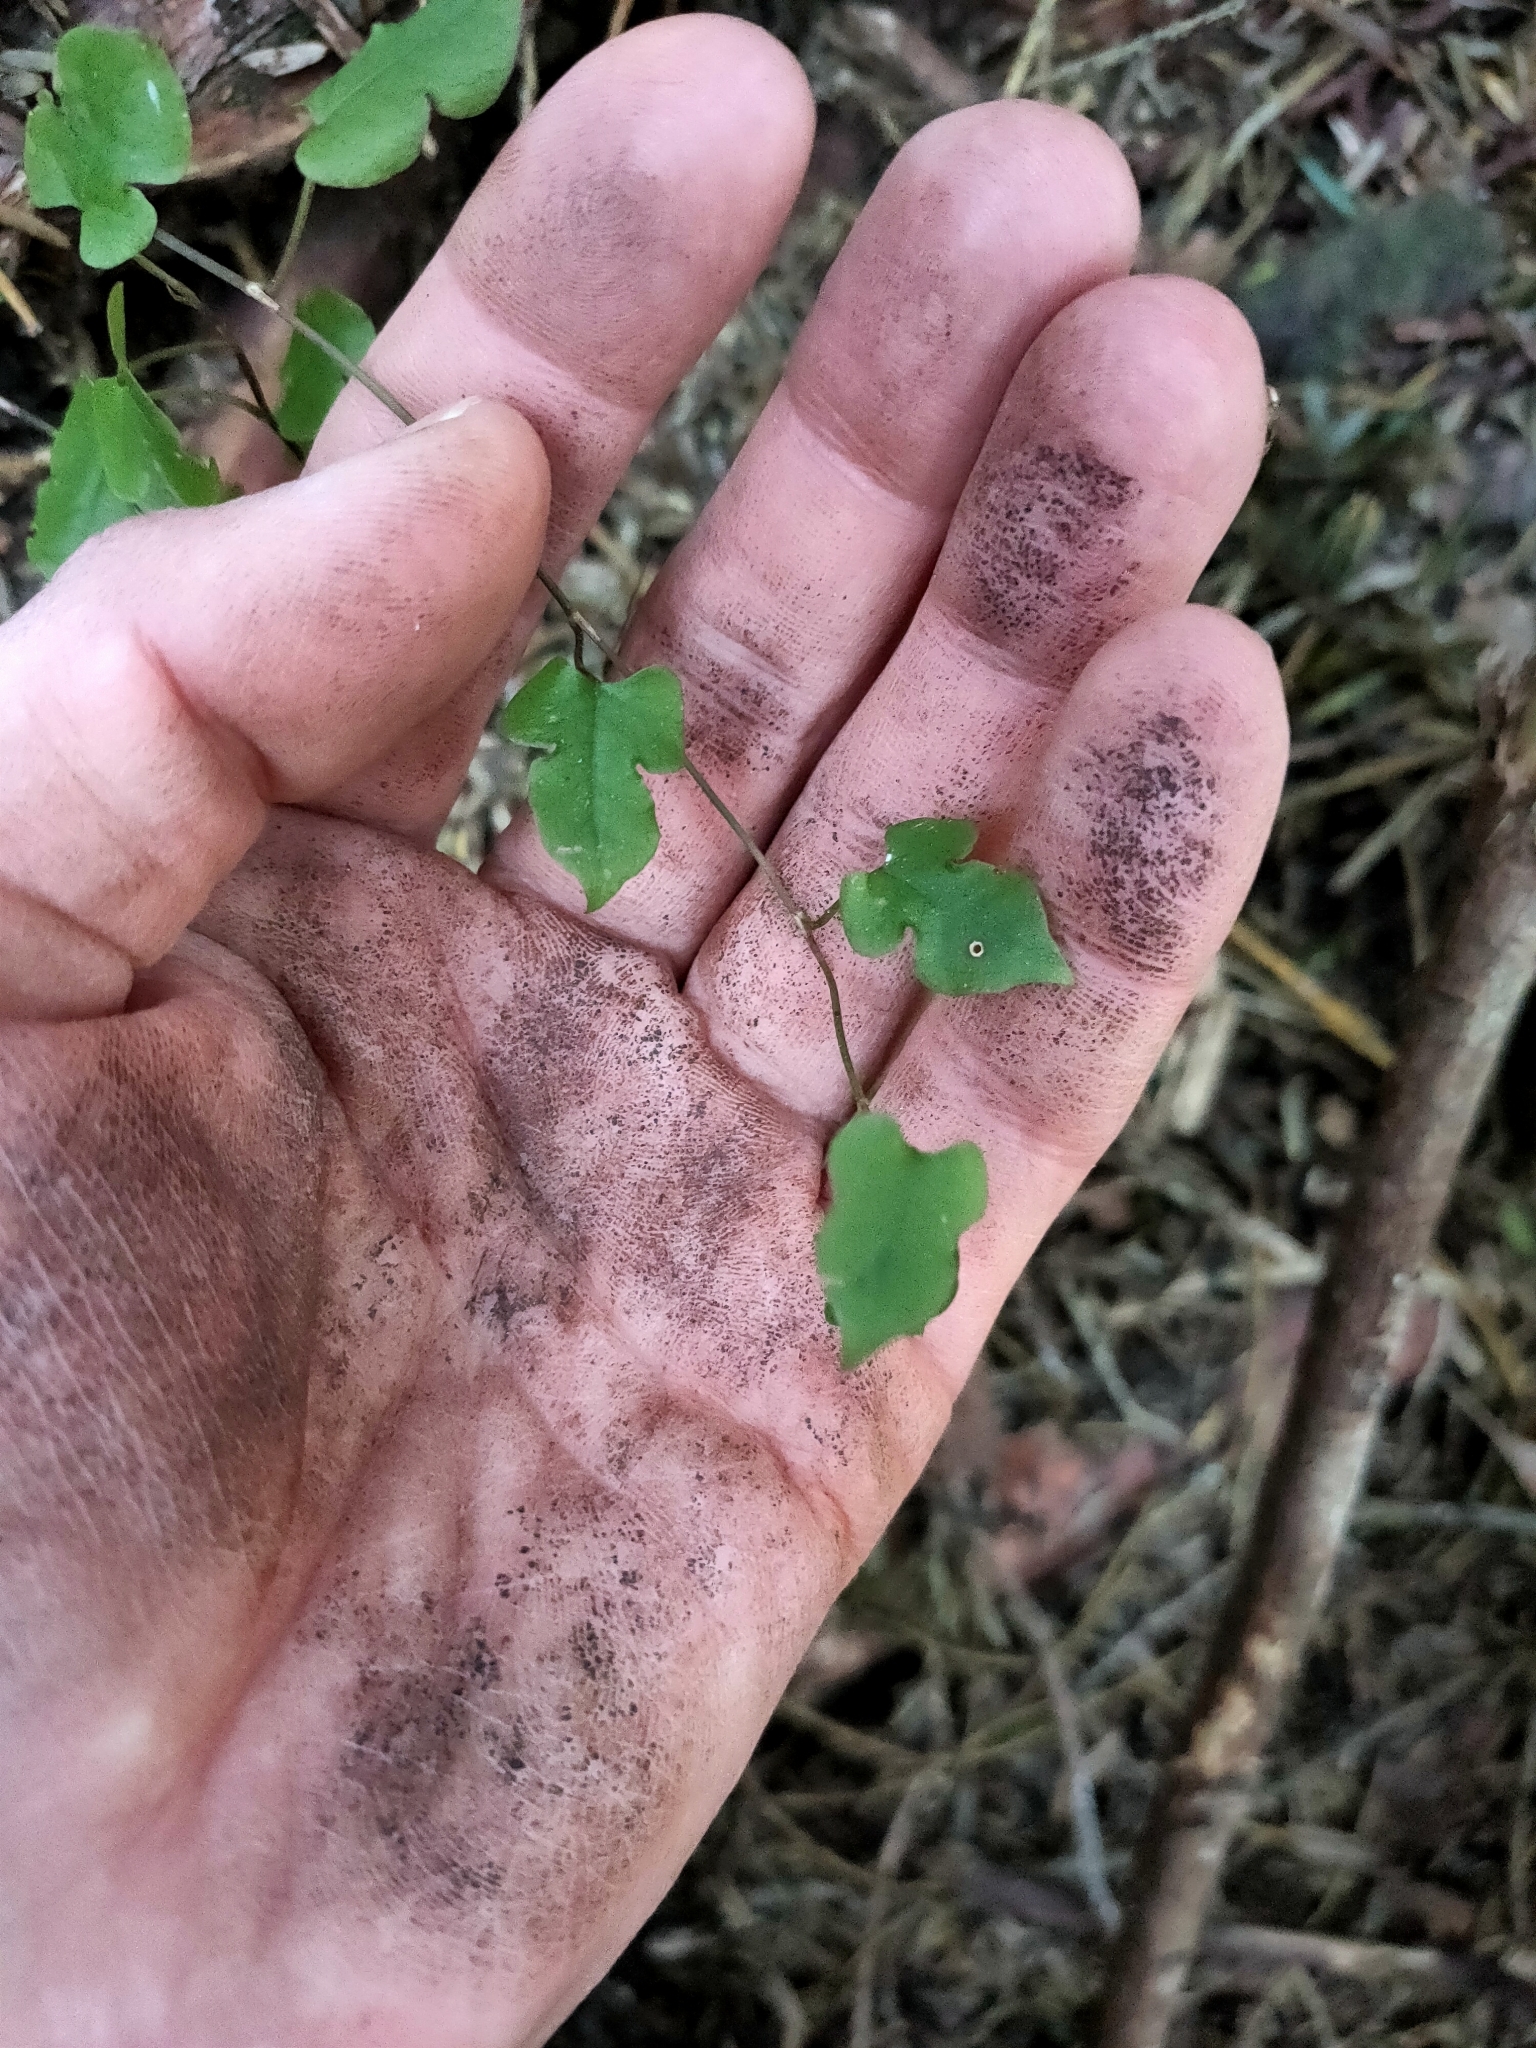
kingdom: Plantae
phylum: Tracheophyta
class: Magnoliopsida
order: Caryophyllales
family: Polygonaceae
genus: Muehlenbeckia
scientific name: Muehlenbeckia australis
